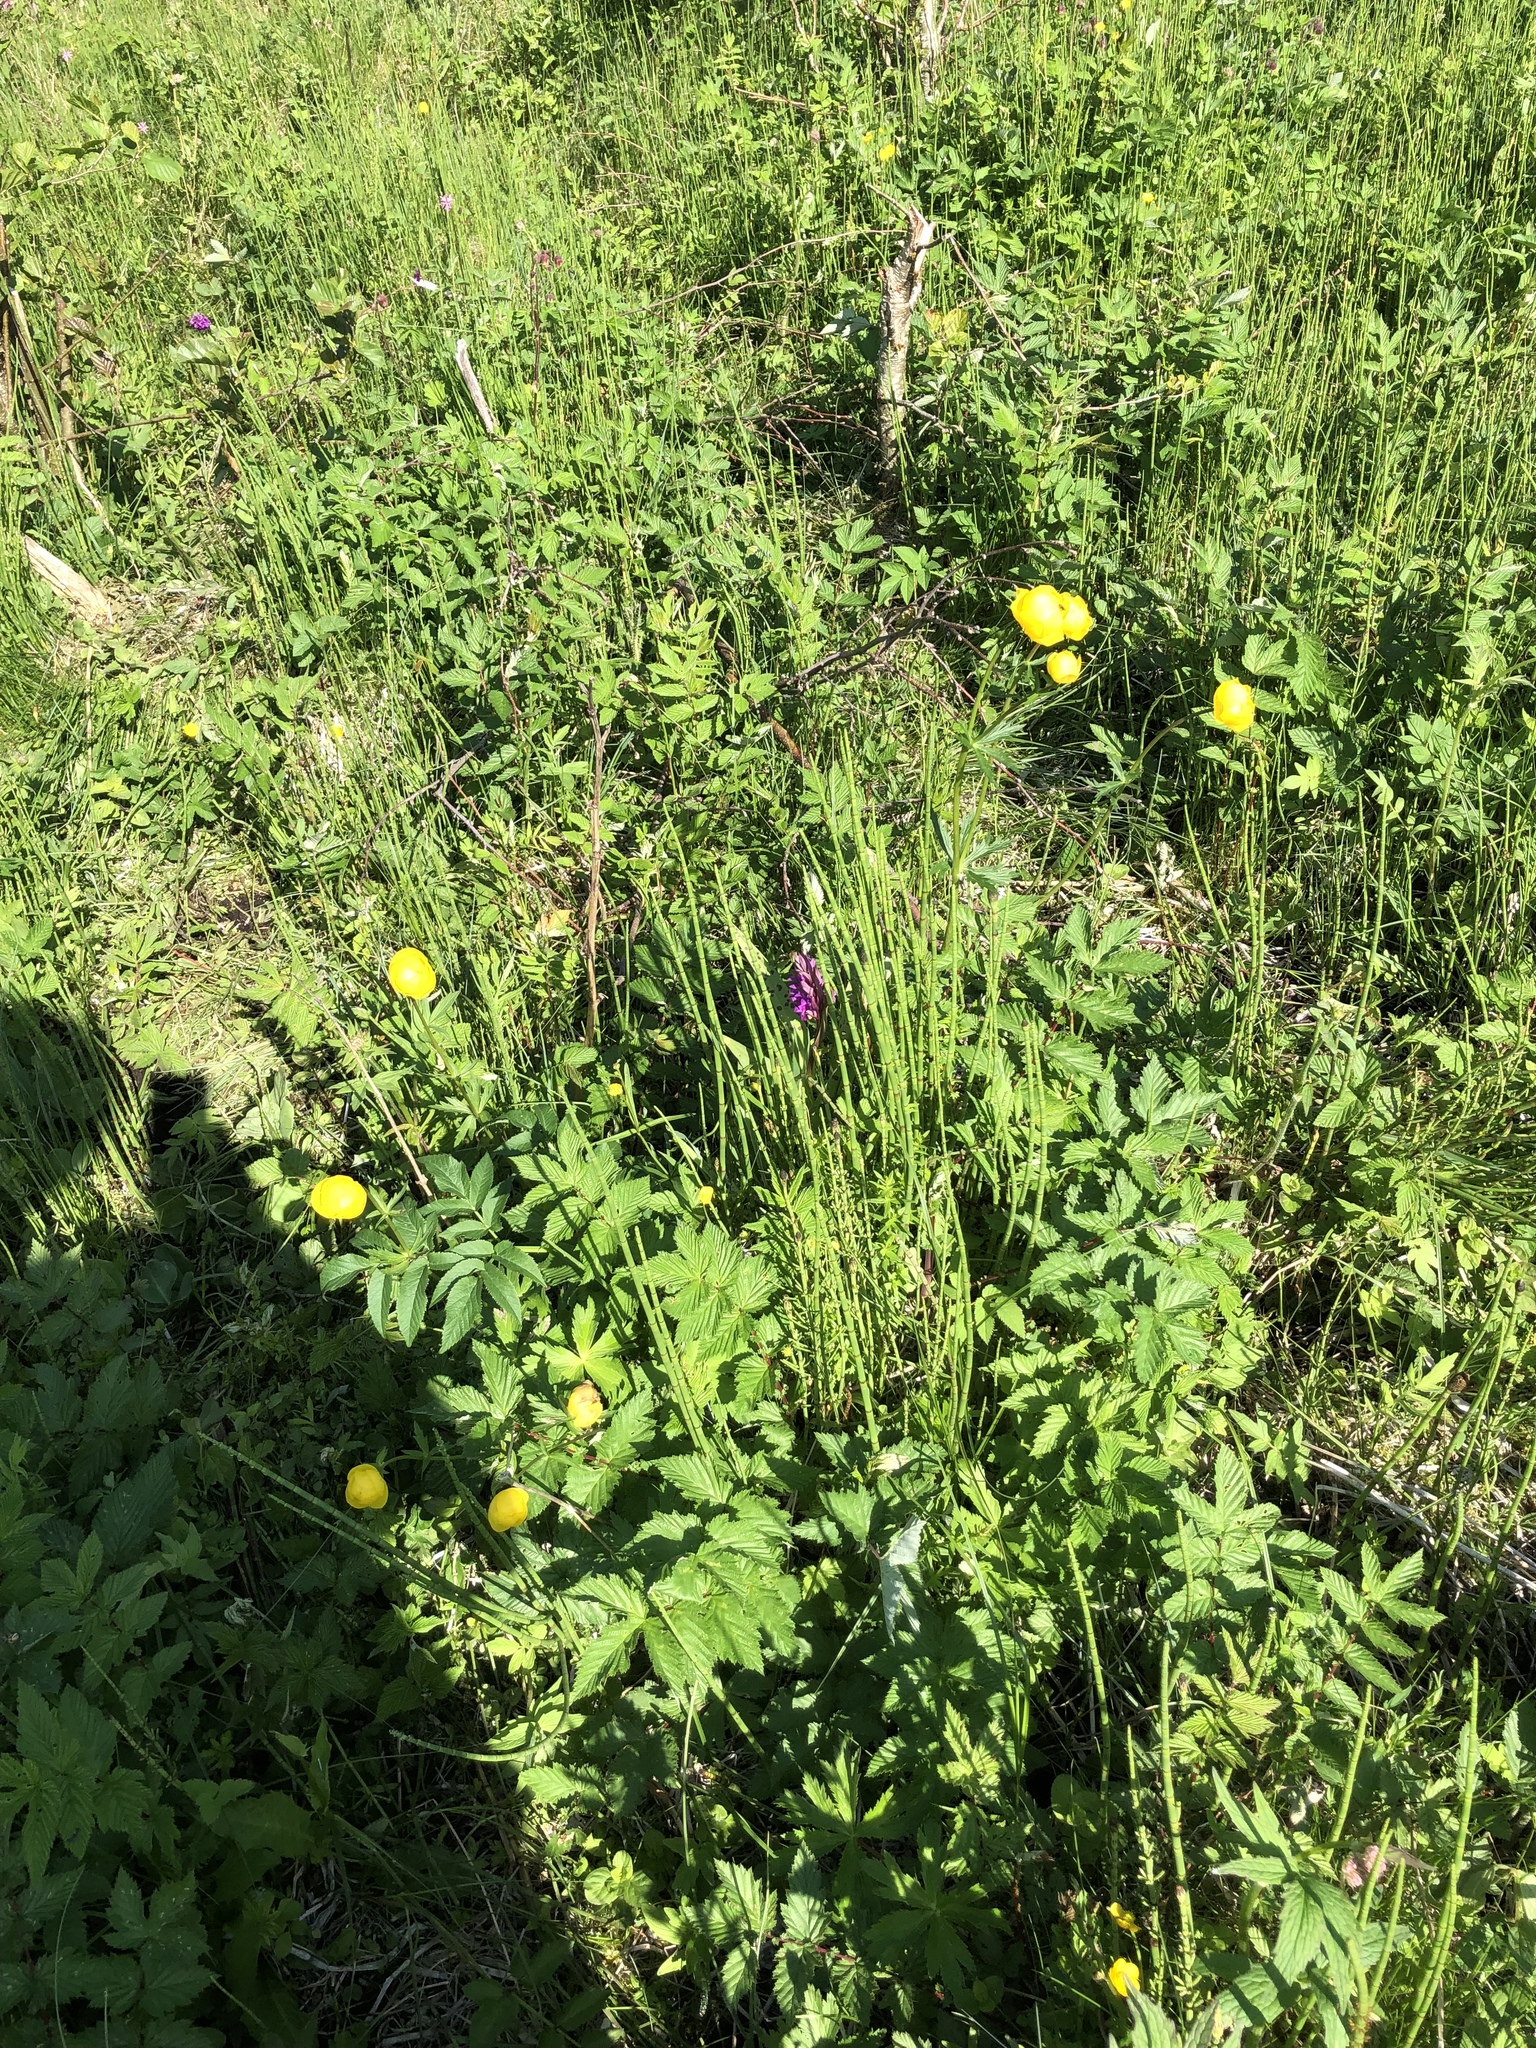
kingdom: Plantae
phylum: Tracheophyta
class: Magnoliopsida
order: Ranunculales
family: Ranunculaceae
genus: Trollius
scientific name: Trollius europaeus
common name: European globeflower
